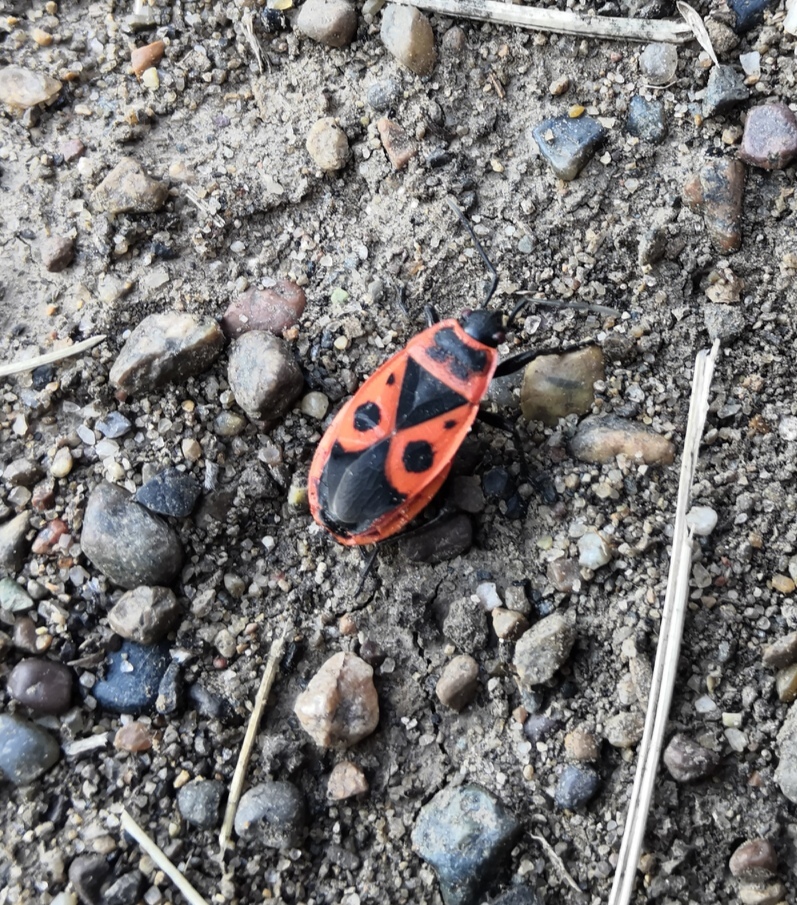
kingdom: Animalia
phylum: Arthropoda
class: Insecta
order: Hemiptera
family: Pyrrhocoridae
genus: Pyrrhocoris
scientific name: Pyrrhocoris apterus
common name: Firebug
